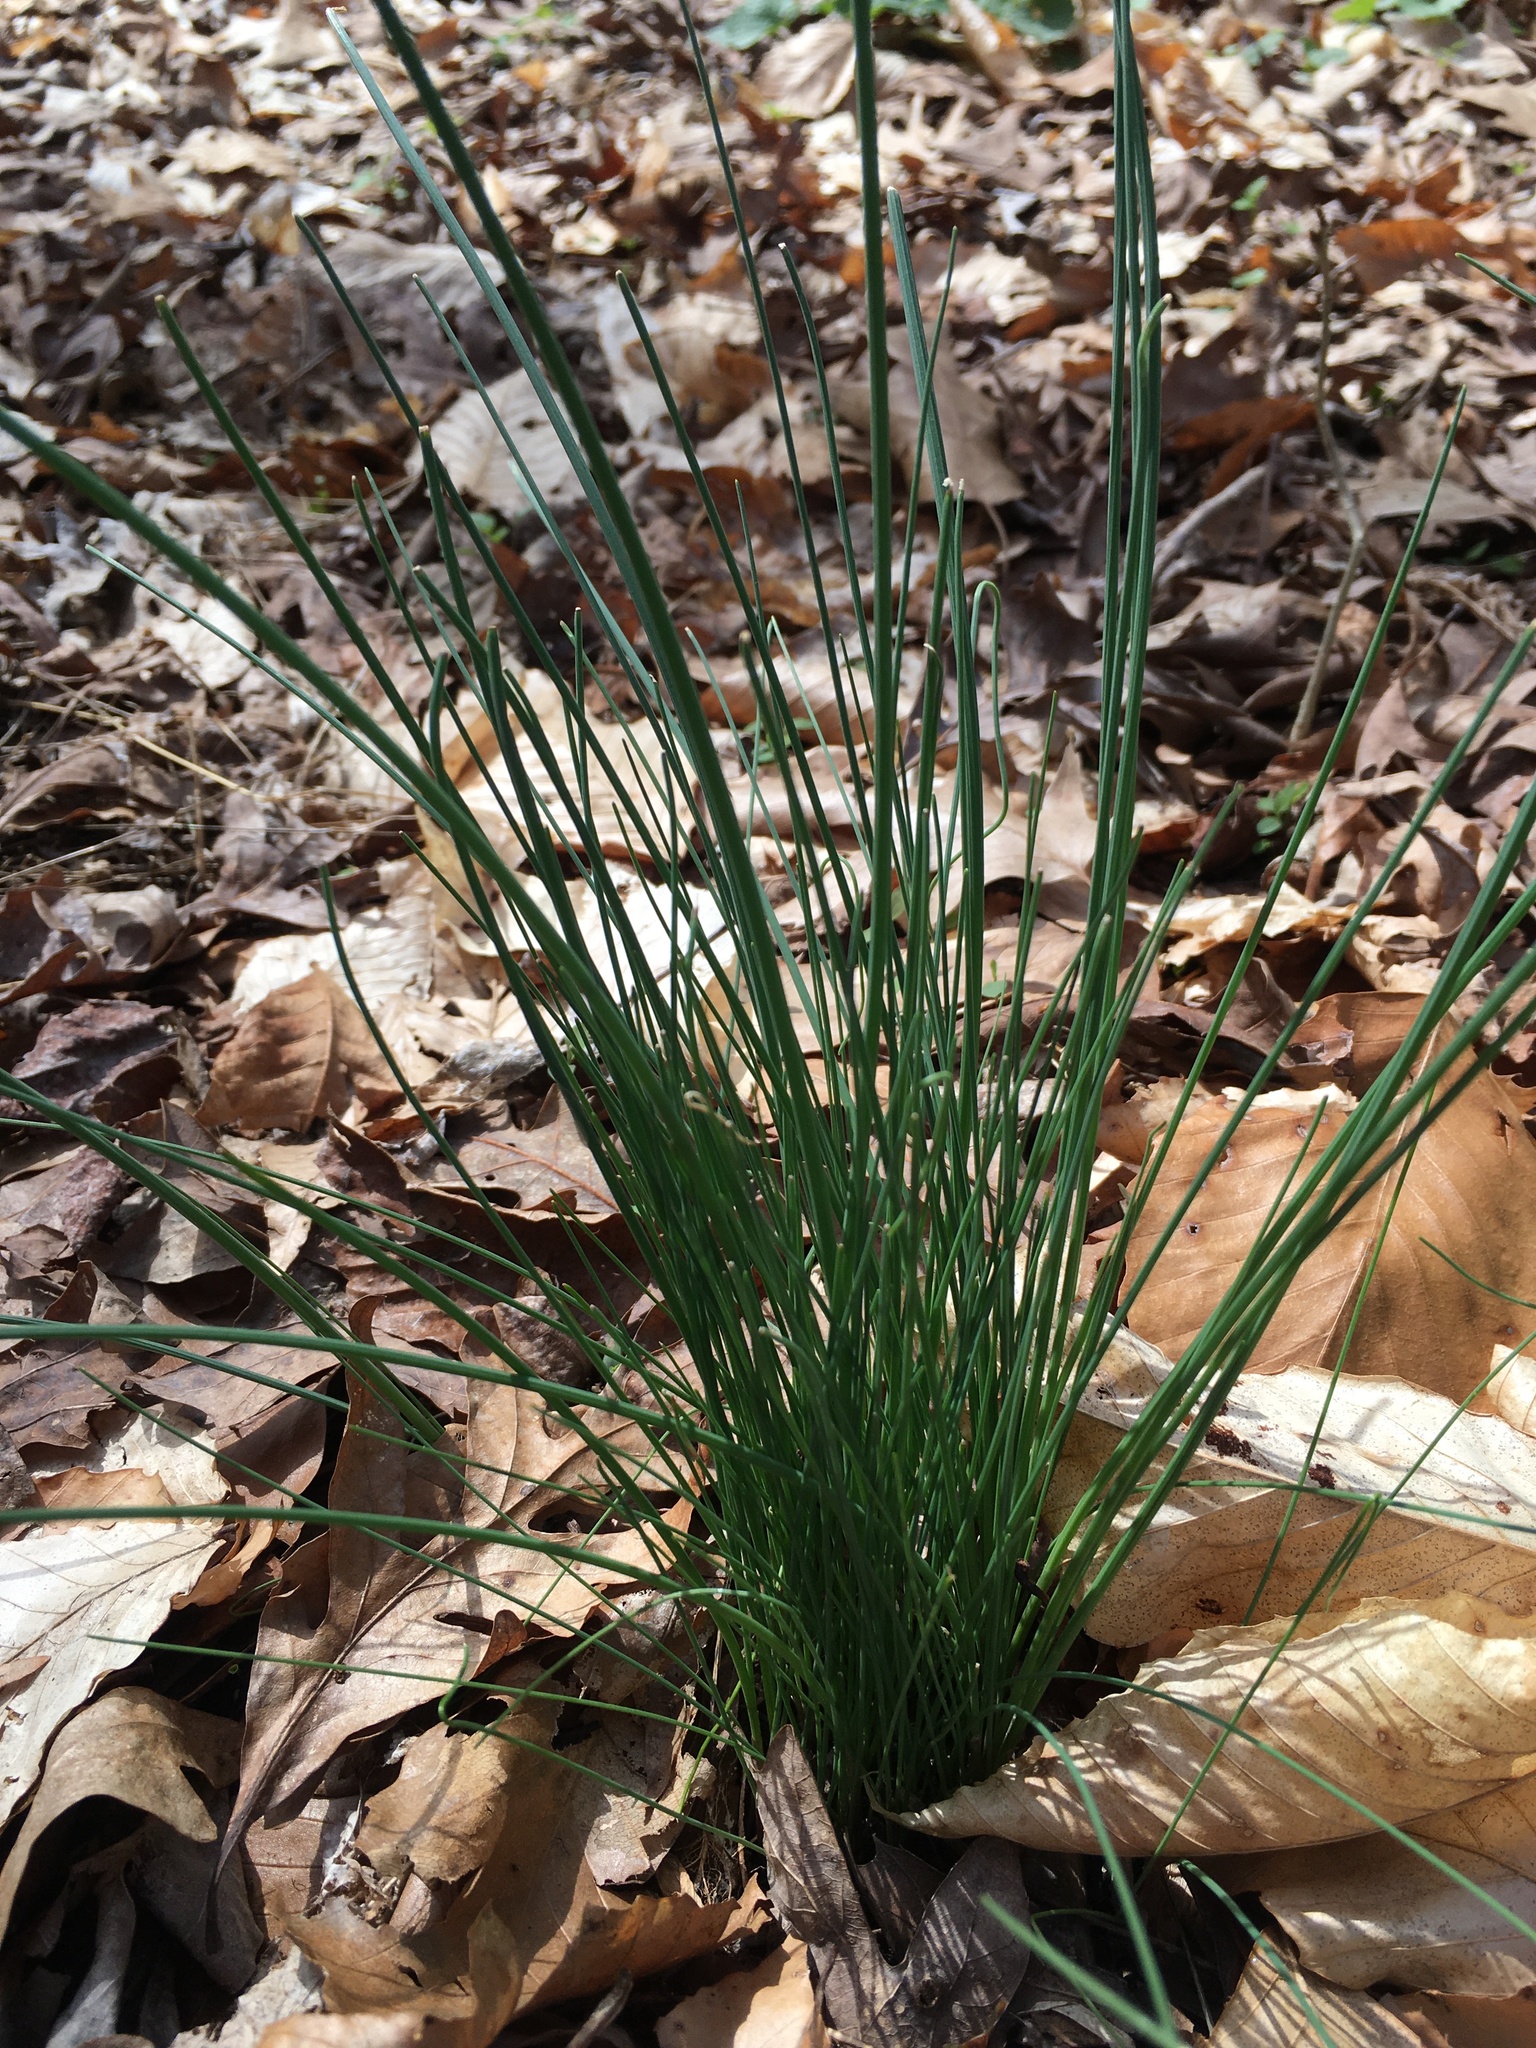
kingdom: Plantae
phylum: Tracheophyta
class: Liliopsida
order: Asparagales
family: Amaryllidaceae
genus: Allium
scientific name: Allium vineale
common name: Crow garlic
